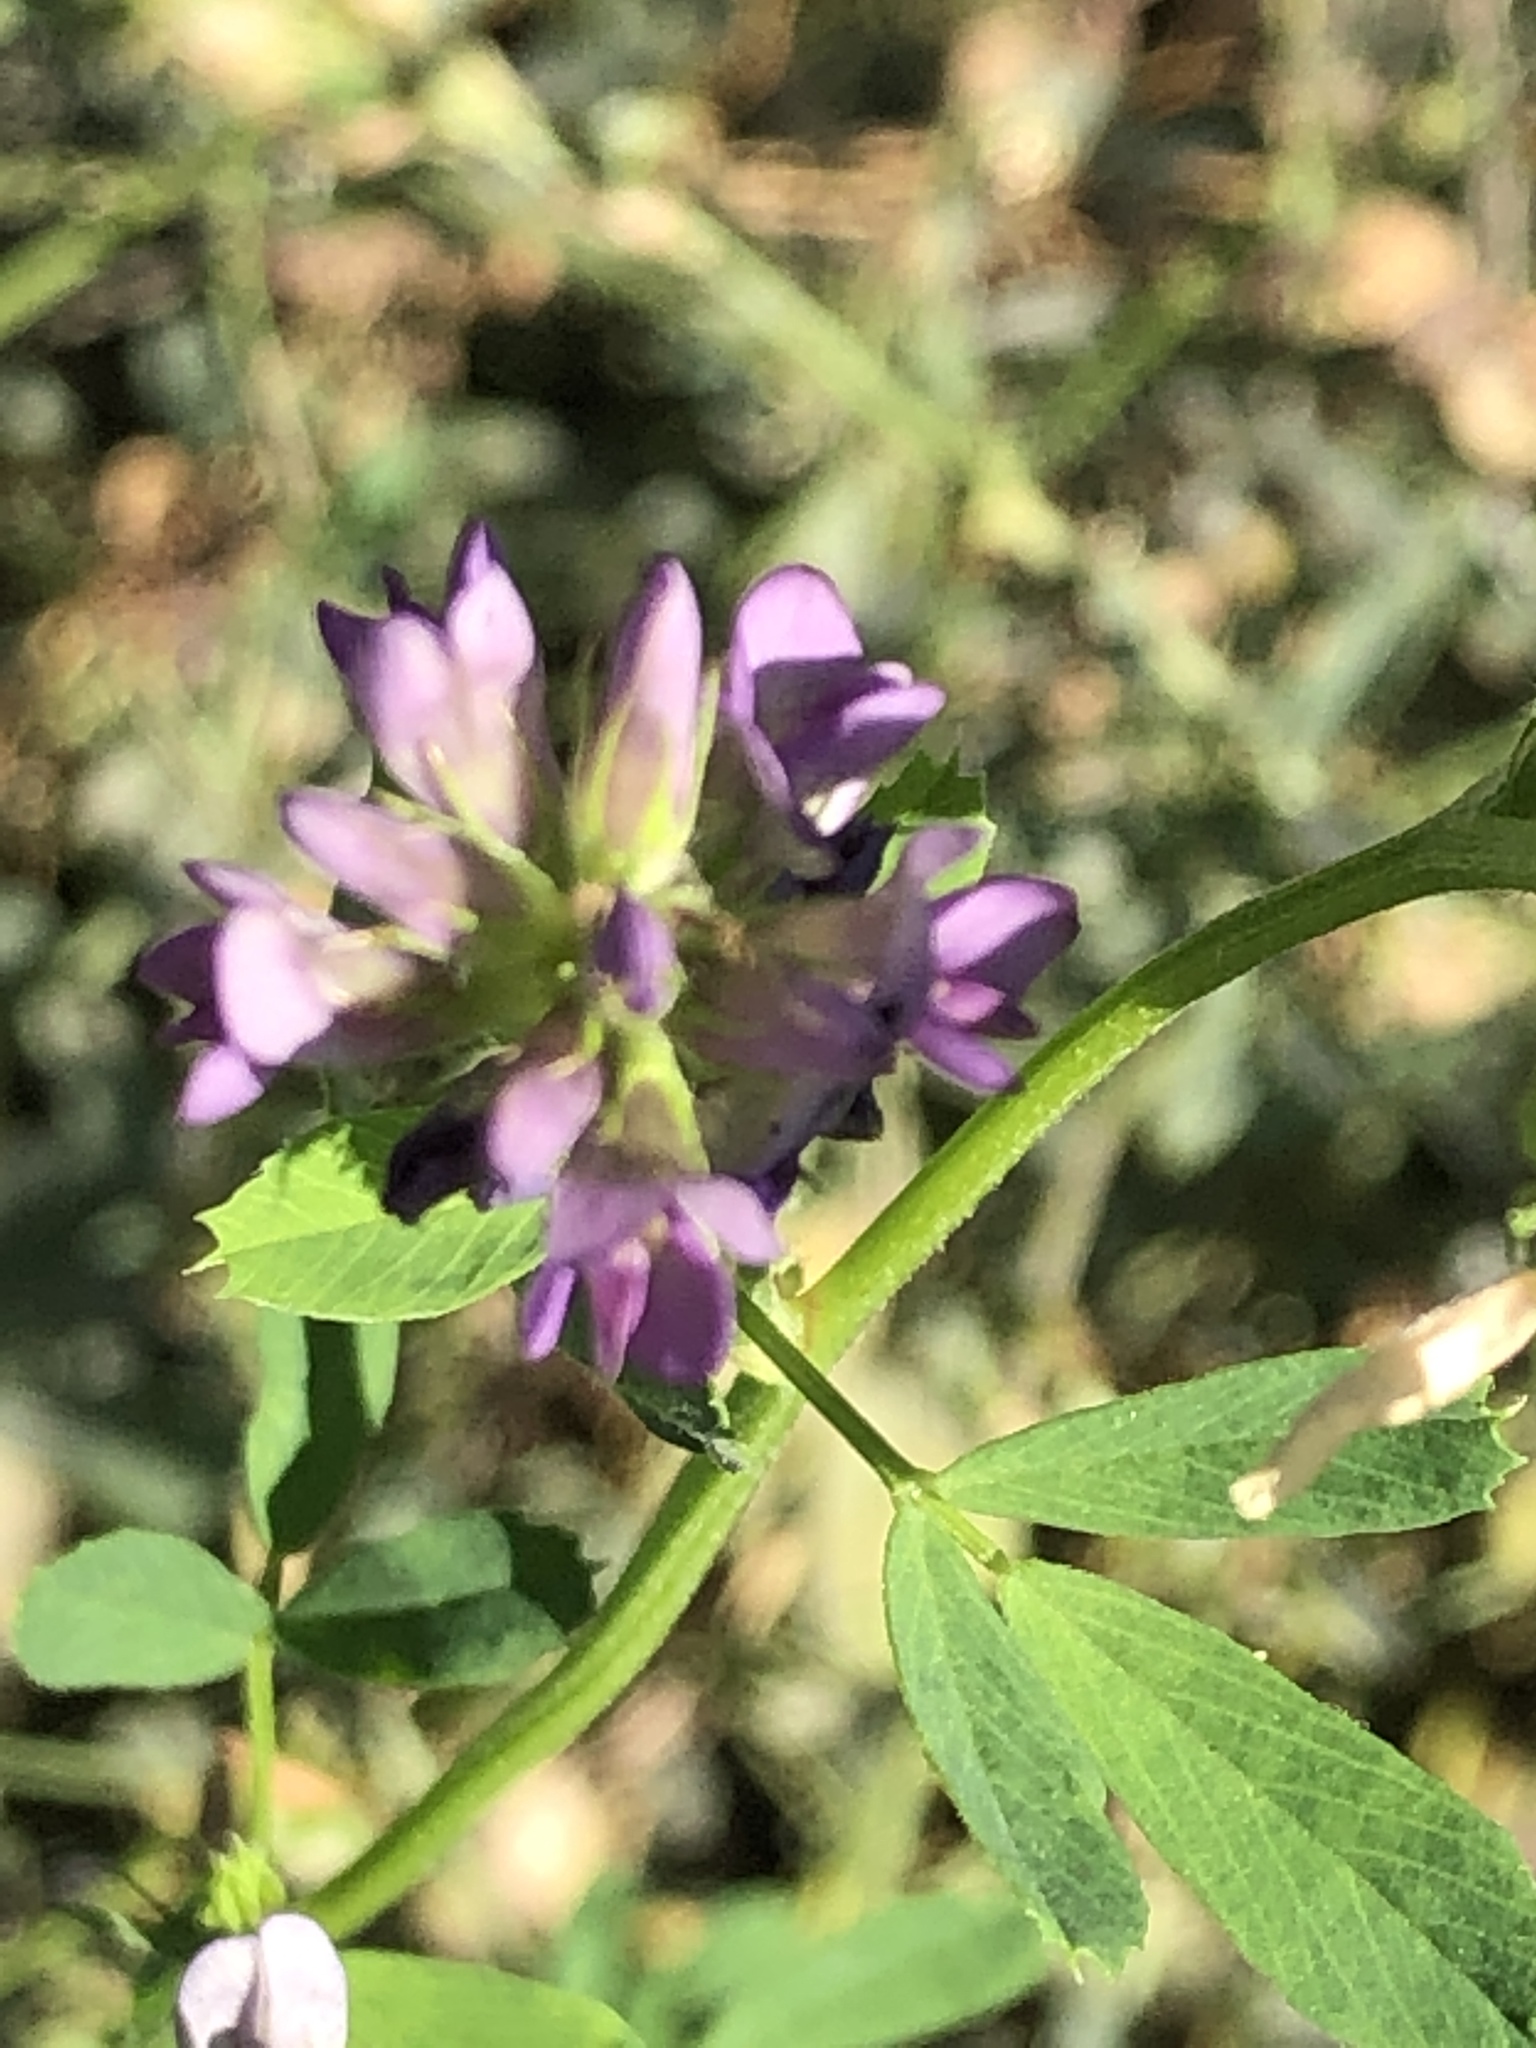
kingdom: Plantae
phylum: Tracheophyta
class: Magnoliopsida
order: Fabales
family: Fabaceae
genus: Medicago
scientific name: Medicago varia
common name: Sand lucerne
